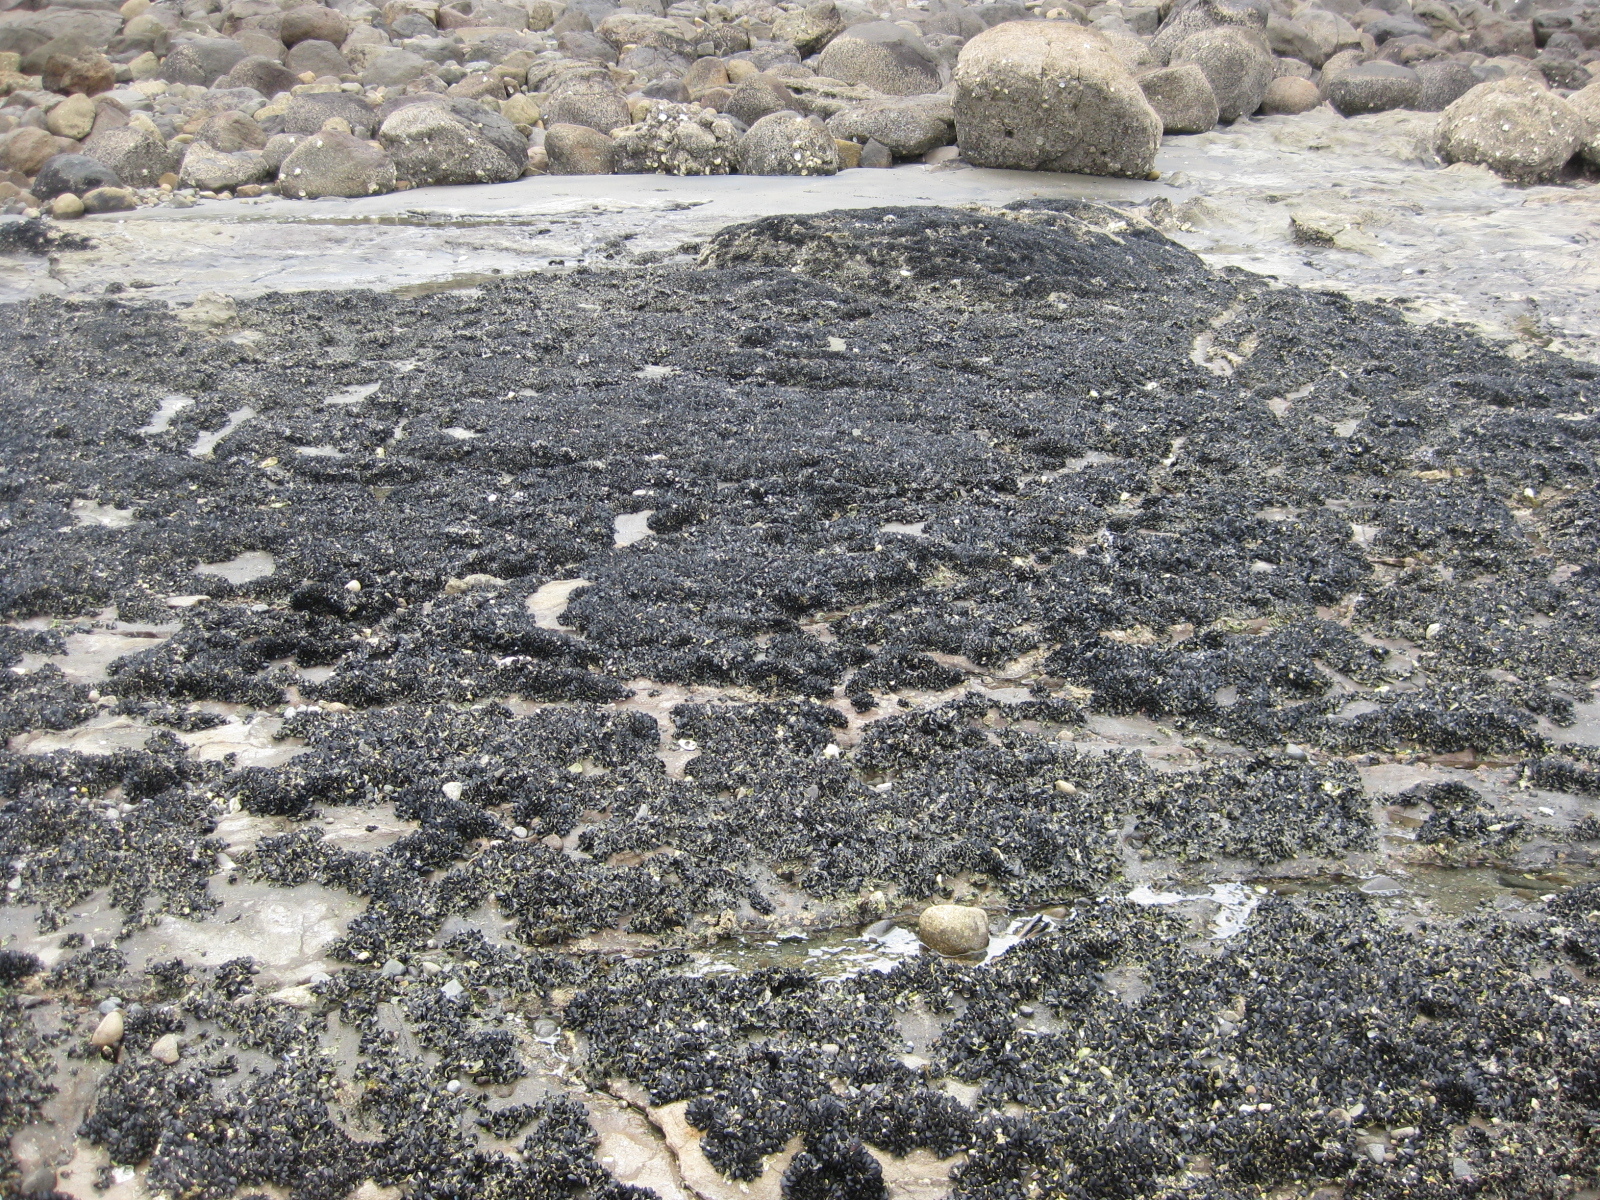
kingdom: Animalia
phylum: Mollusca
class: Bivalvia
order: Mytilida
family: Mytilidae
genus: Xenostrobus
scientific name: Xenostrobus neozelanicus
